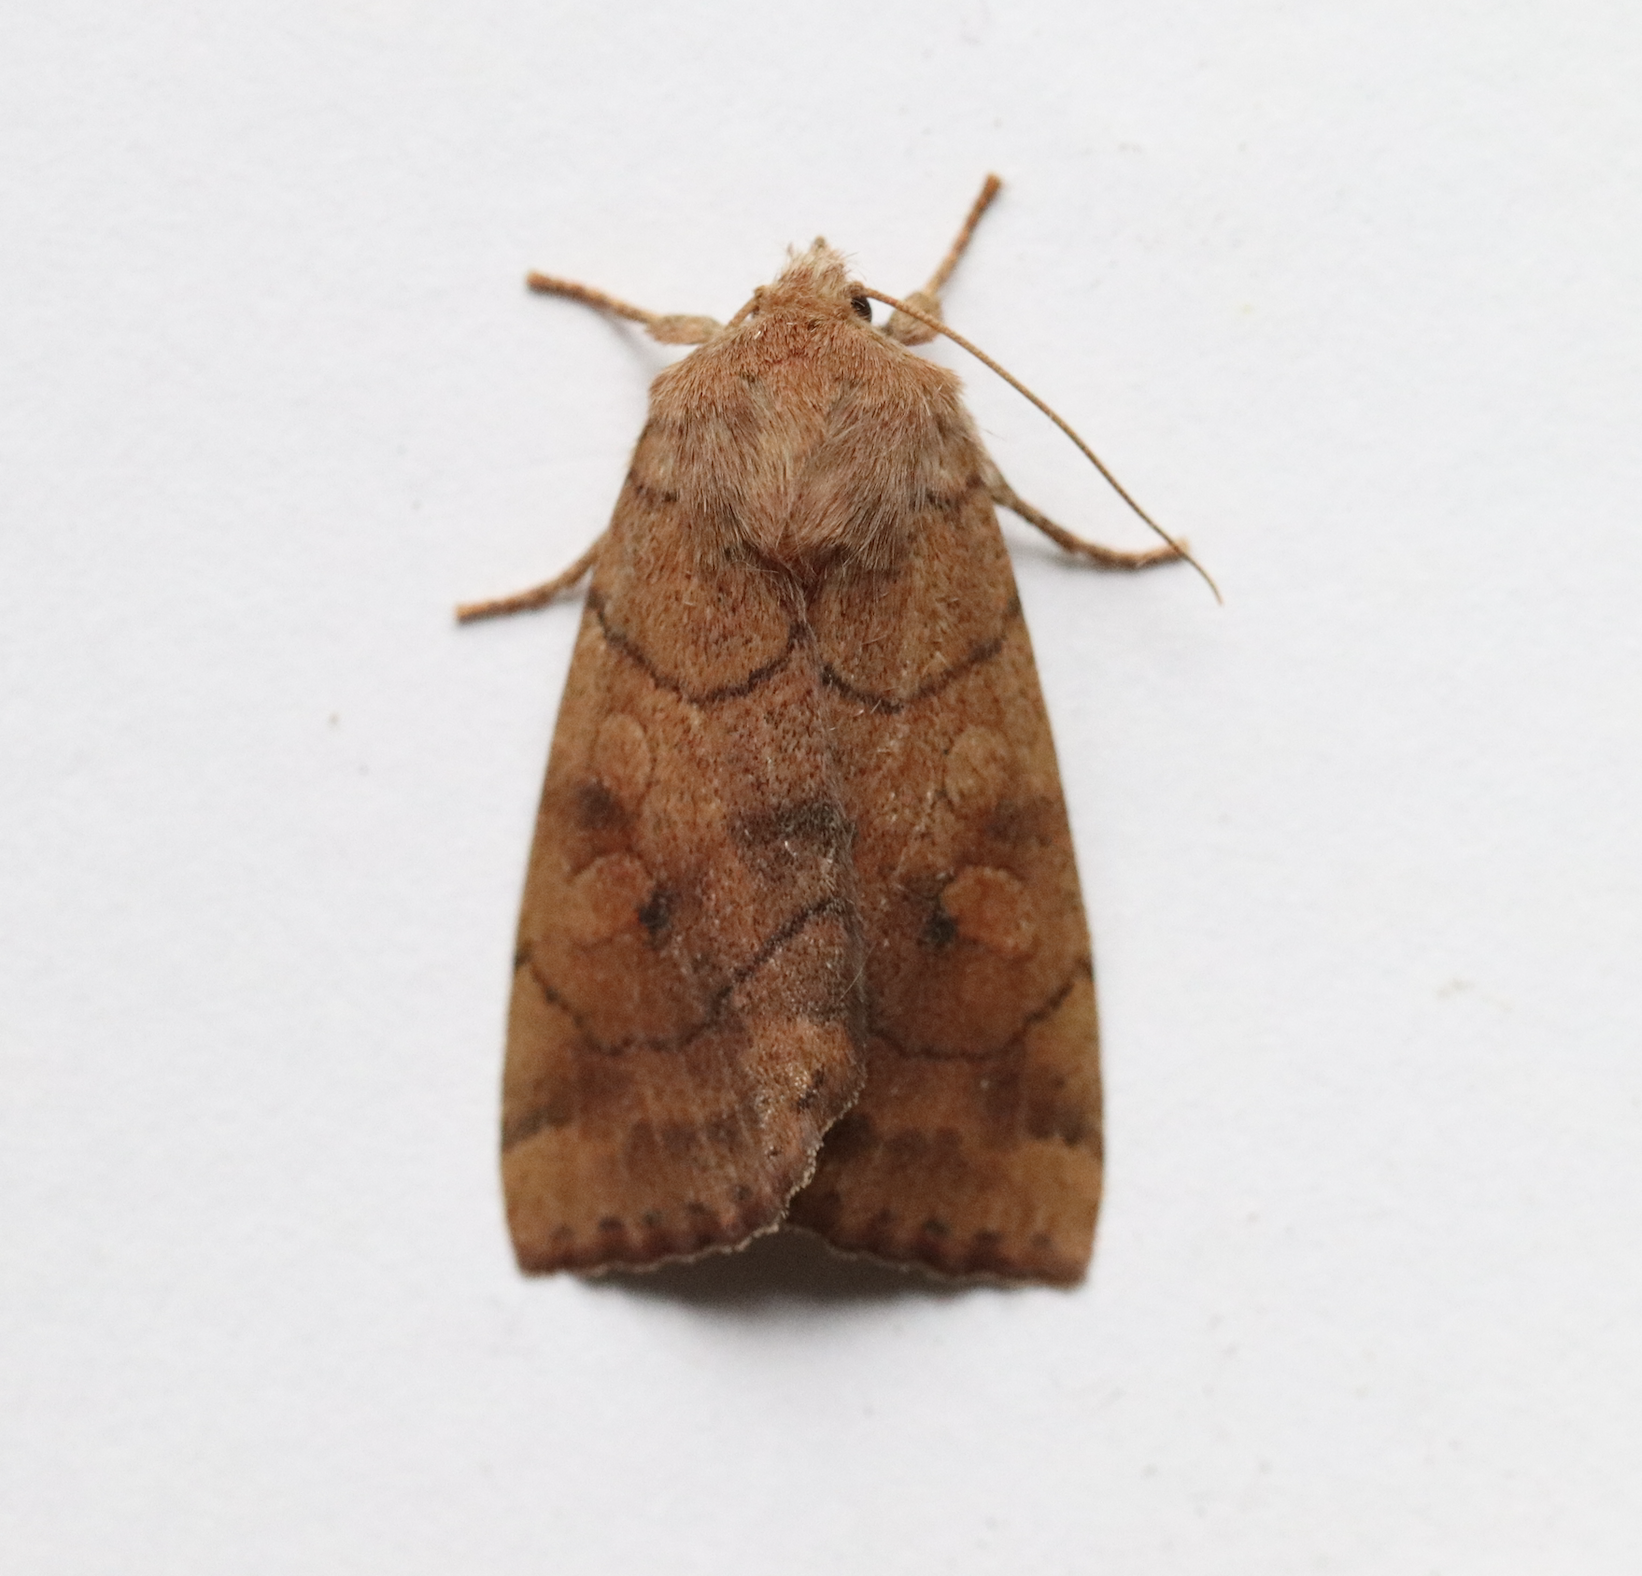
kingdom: Animalia
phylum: Arthropoda
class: Insecta
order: Lepidoptera
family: Noctuidae
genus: Enargia
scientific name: Enargia infumata
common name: Smoked sallow
